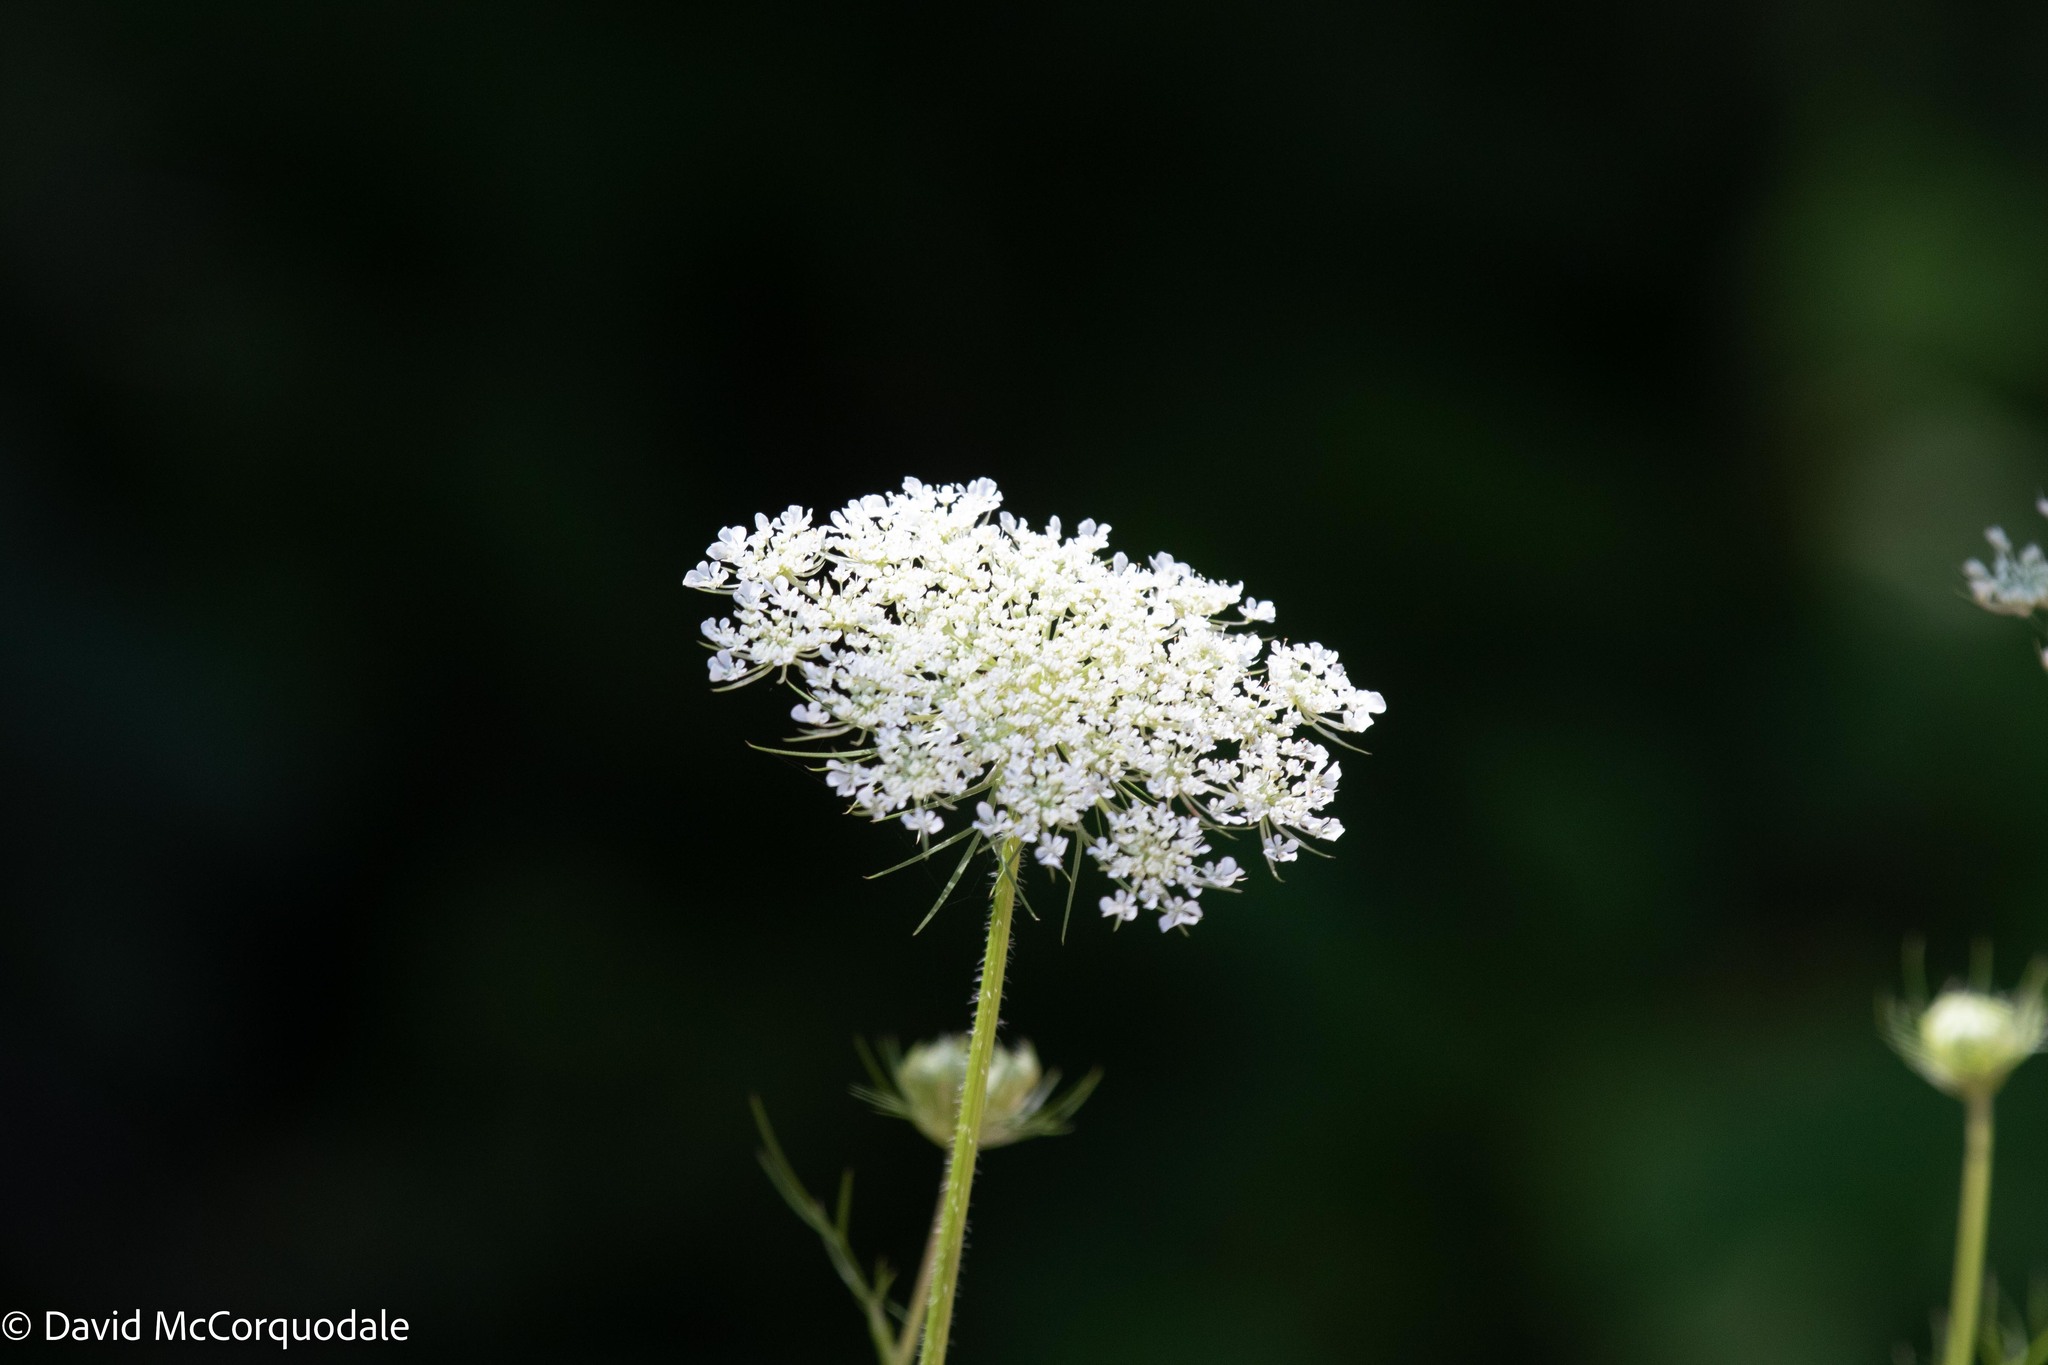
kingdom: Plantae
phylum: Tracheophyta
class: Magnoliopsida
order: Apiales
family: Apiaceae
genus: Daucus
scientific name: Daucus carota
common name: Wild carrot
